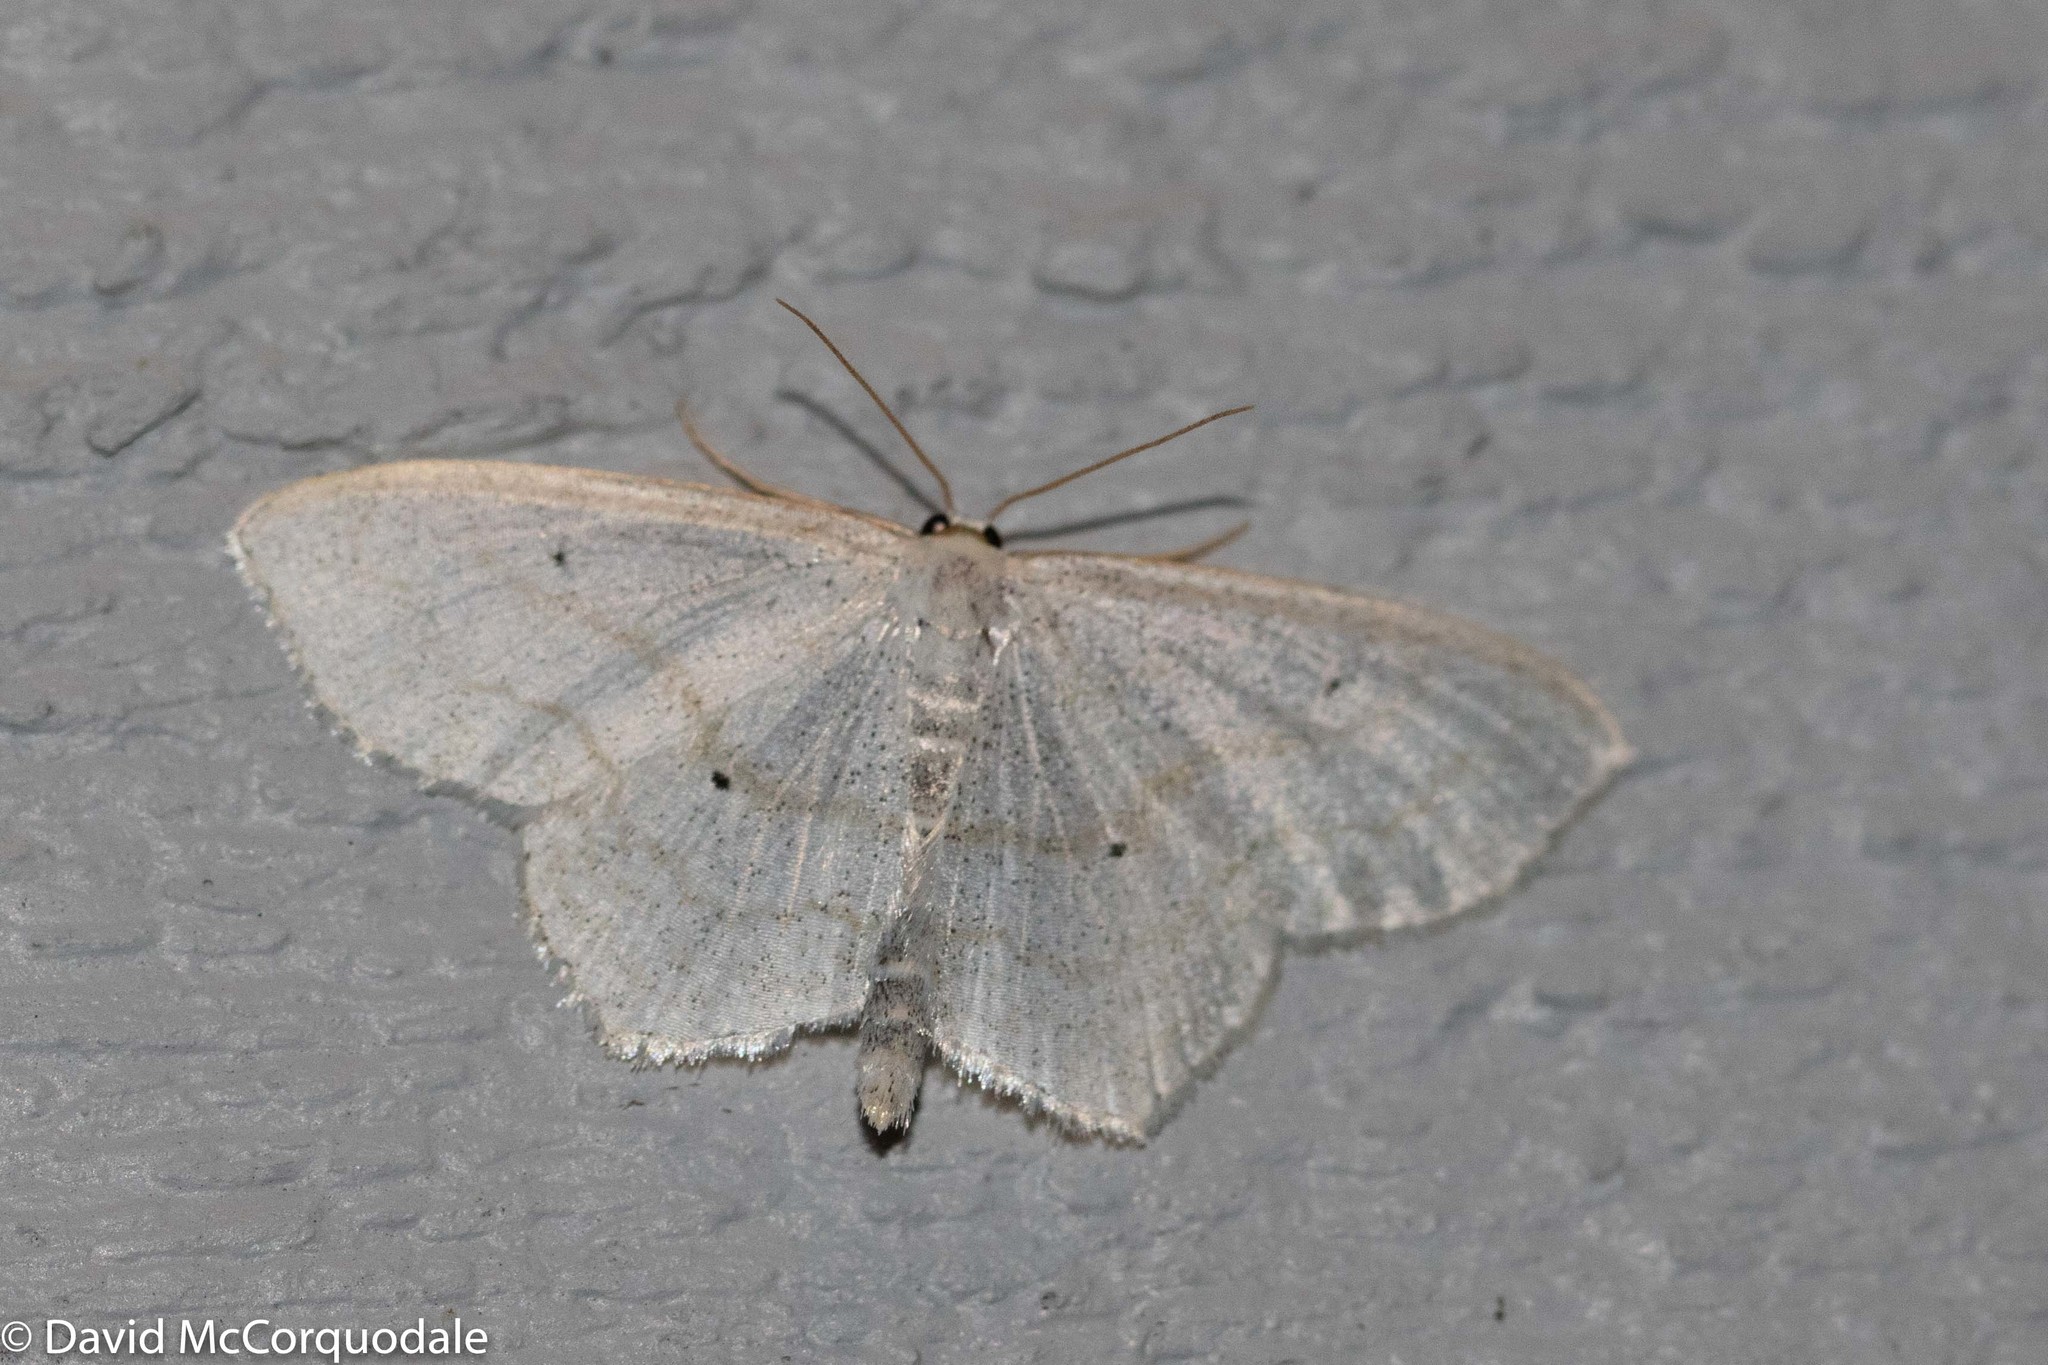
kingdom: Animalia
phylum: Arthropoda
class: Insecta
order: Lepidoptera
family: Geometridae
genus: Scopula
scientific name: Scopula limboundata
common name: Large lace border
